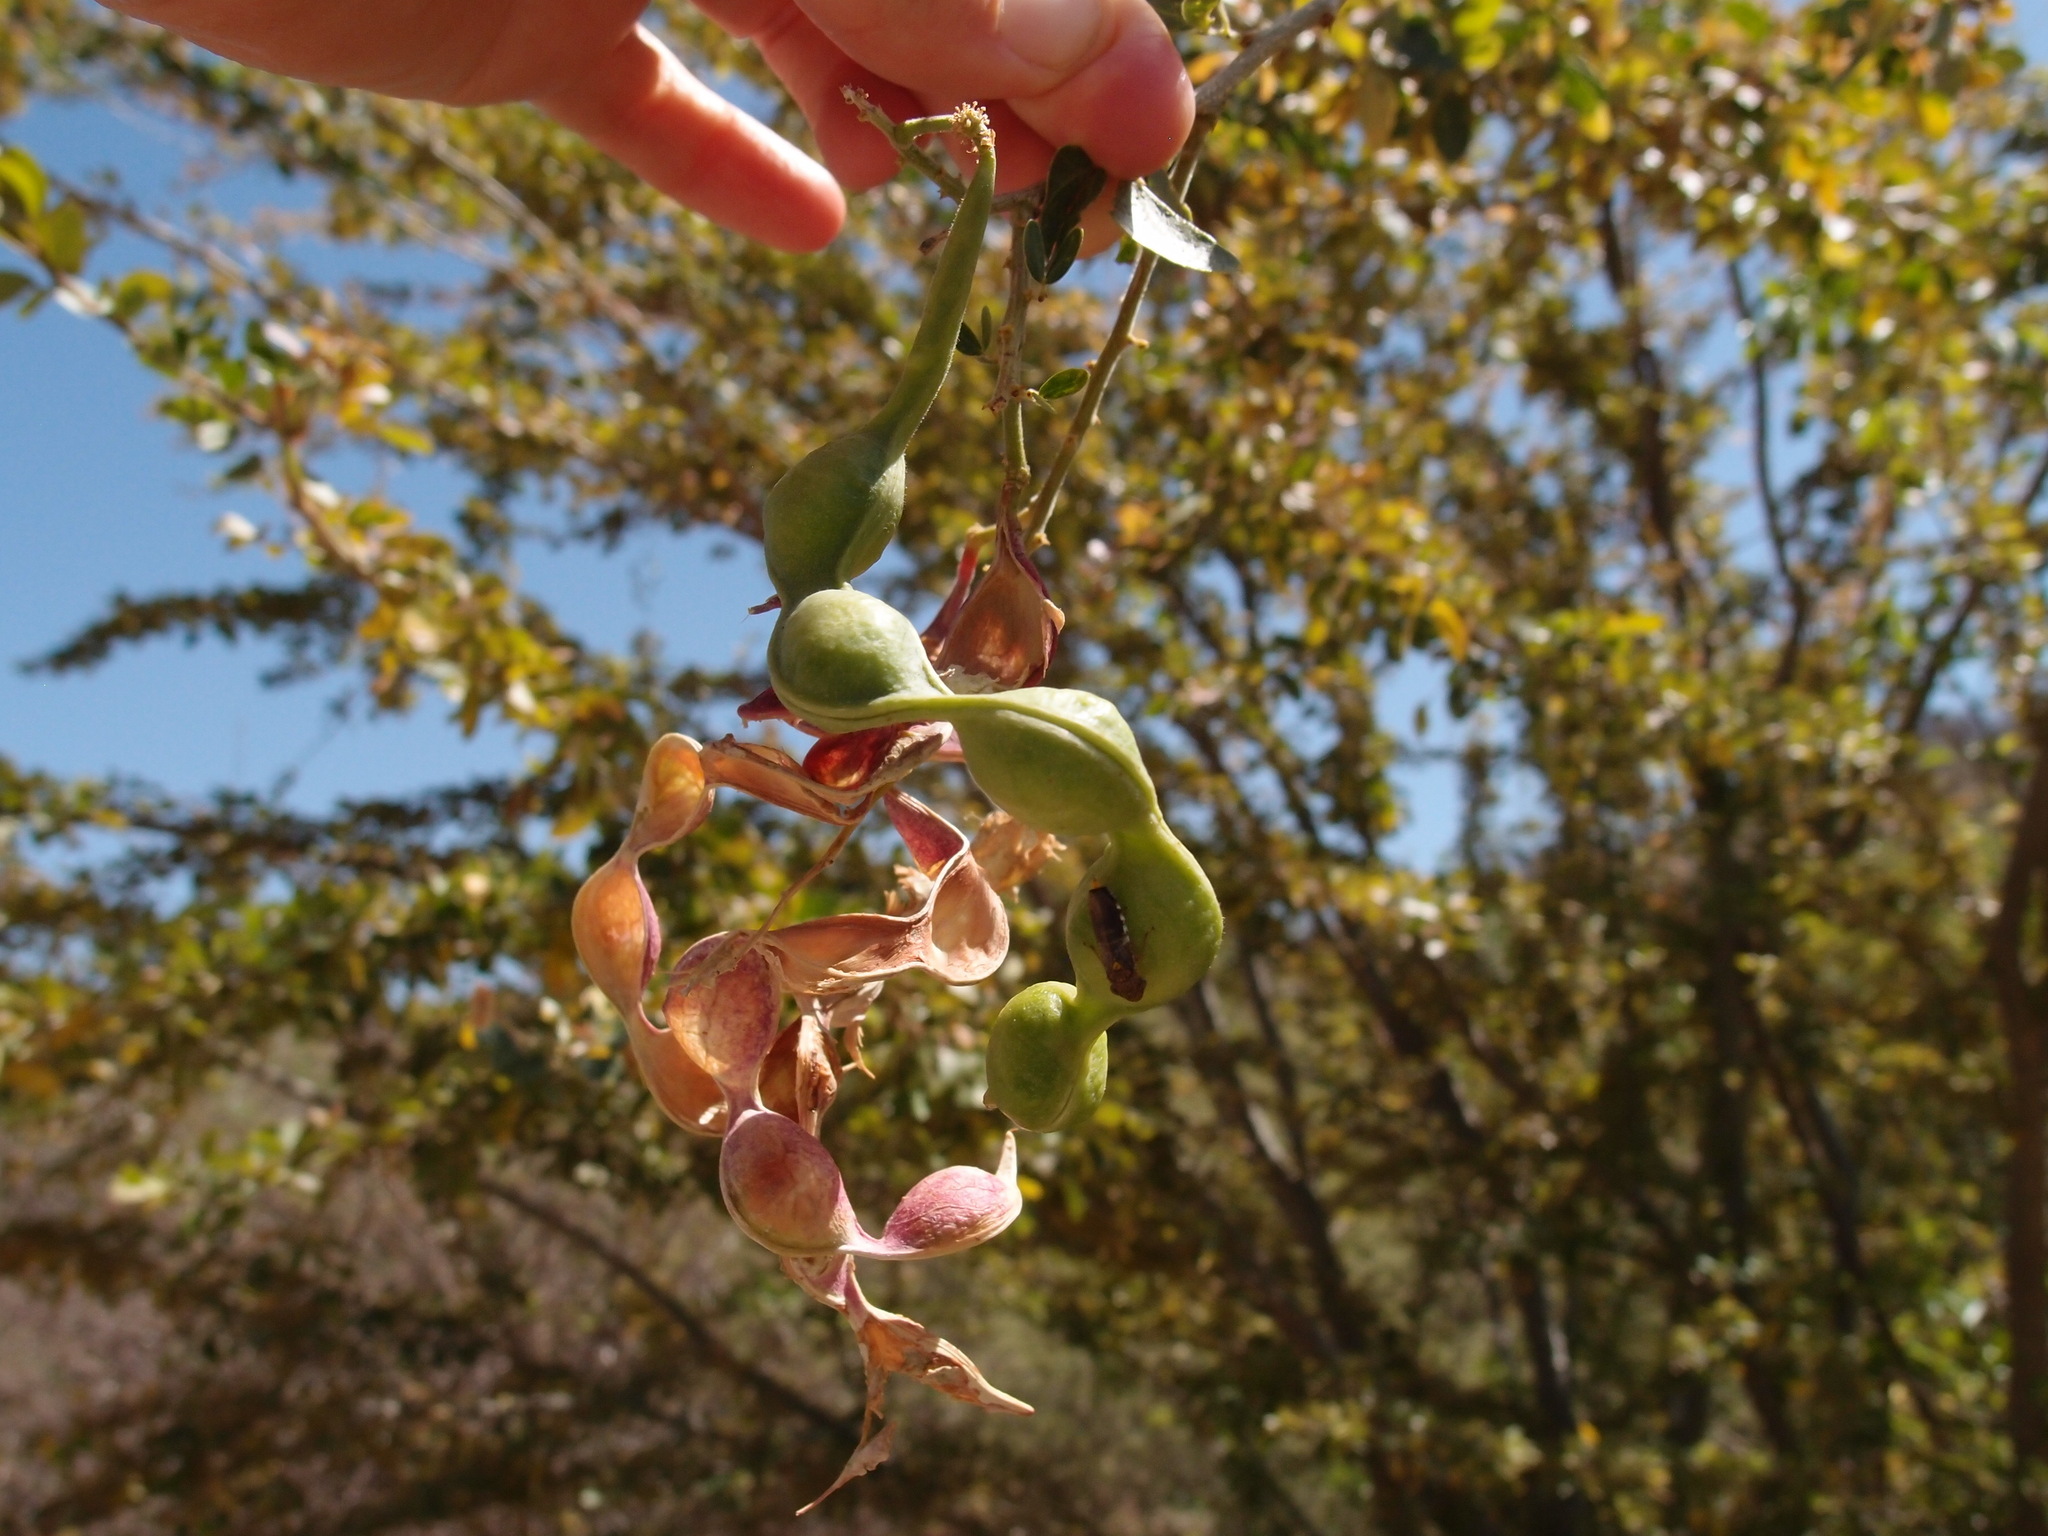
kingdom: Plantae
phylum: Tracheophyta
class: Magnoliopsida
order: Fabales
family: Fabaceae
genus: Pithecellobium
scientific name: Pithecellobium dulce
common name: Monkeypod
